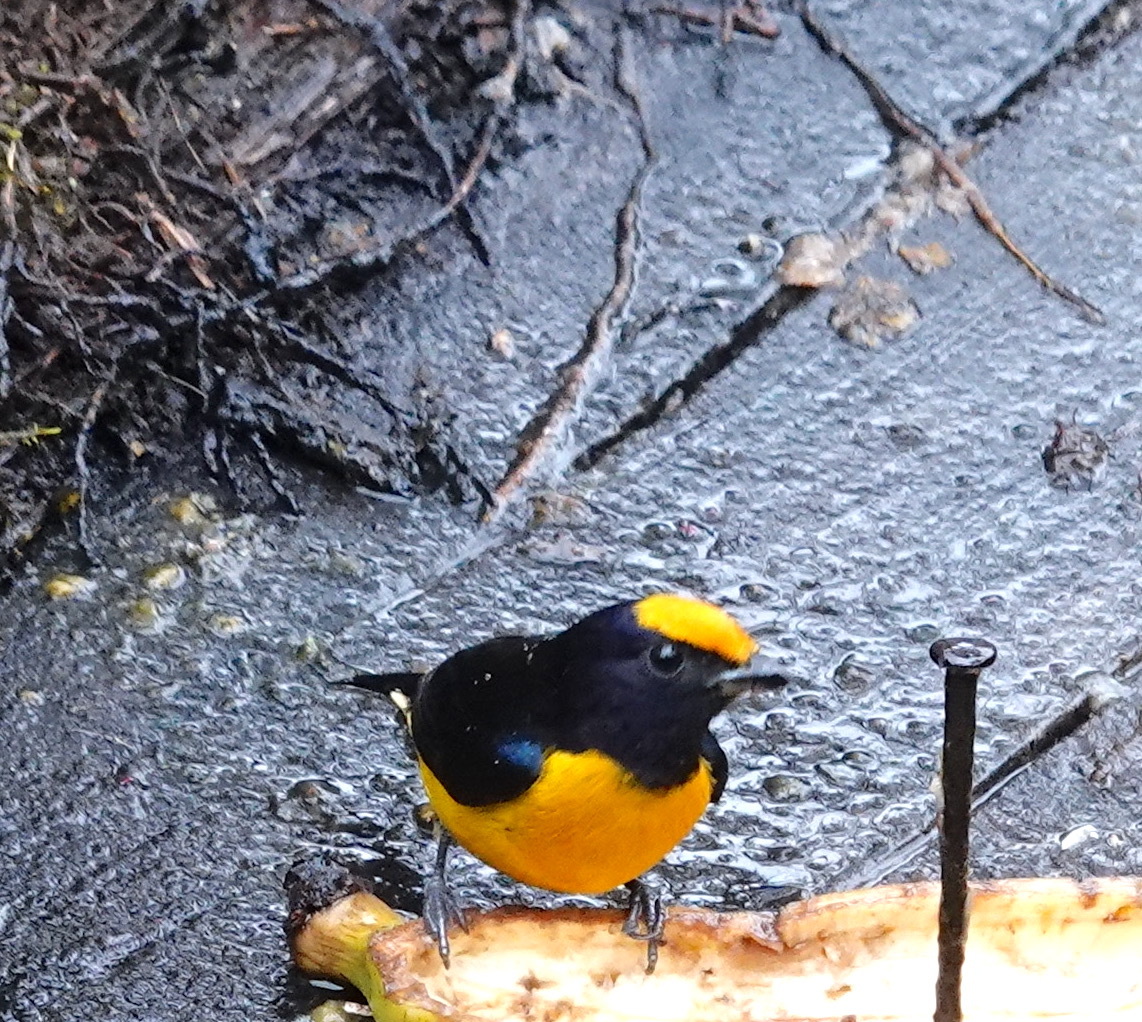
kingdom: Animalia
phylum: Chordata
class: Aves
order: Passeriformes
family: Fringillidae
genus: Euphonia
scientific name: Euphonia xanthogaster
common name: Orange-bellied euphonia
